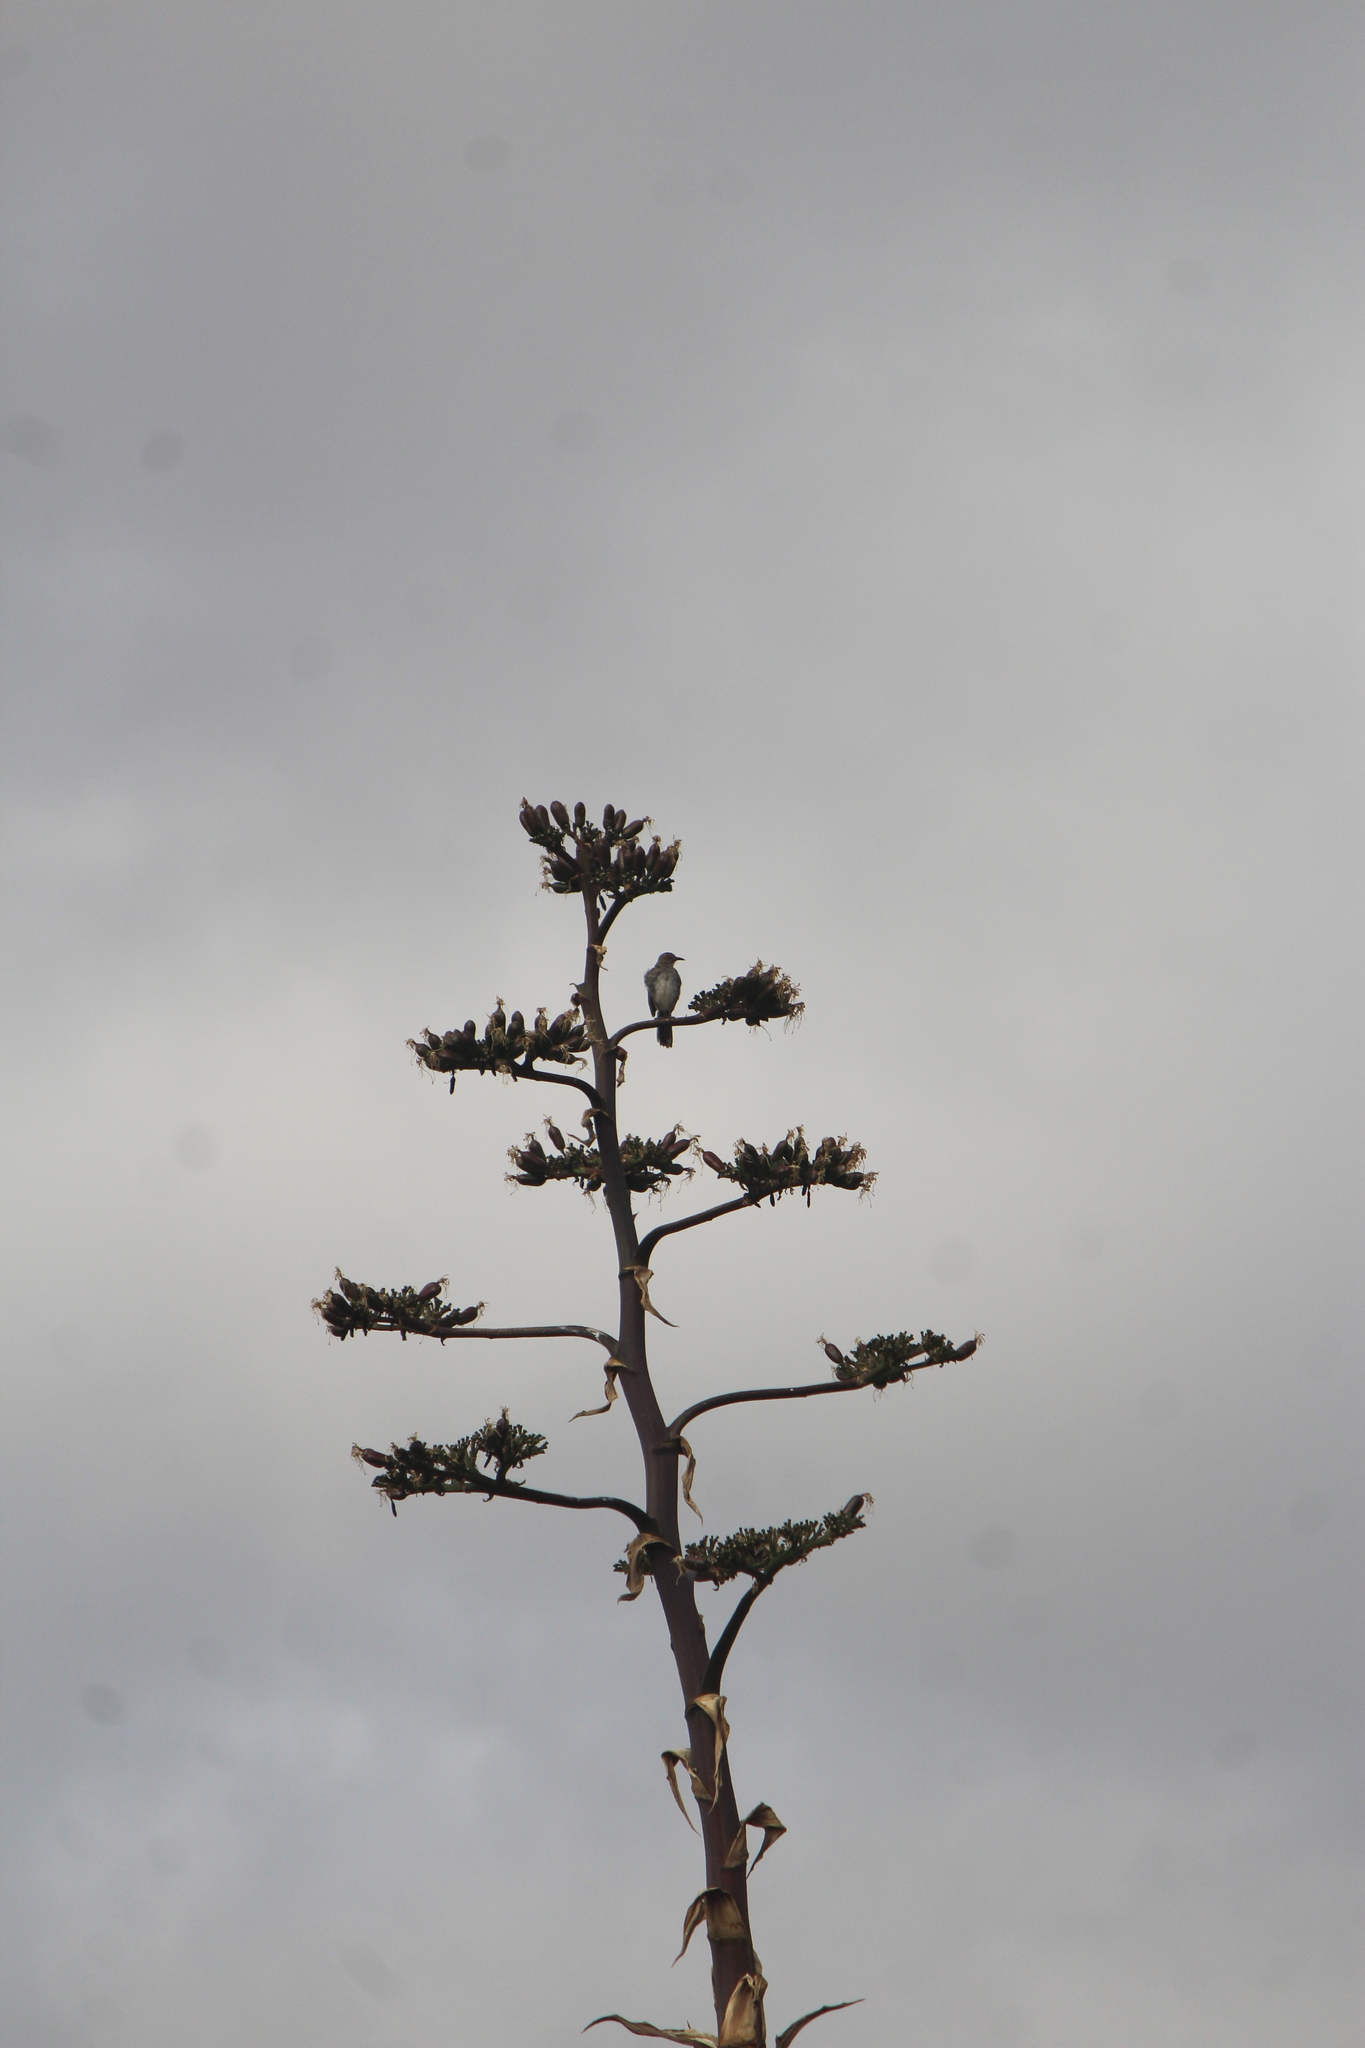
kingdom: Animalia
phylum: Chordata
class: Aves
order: Passeriformes
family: Mimidae
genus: Toxostoma
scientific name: Toxostoma curvirostre
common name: Curve-billed thrasher
